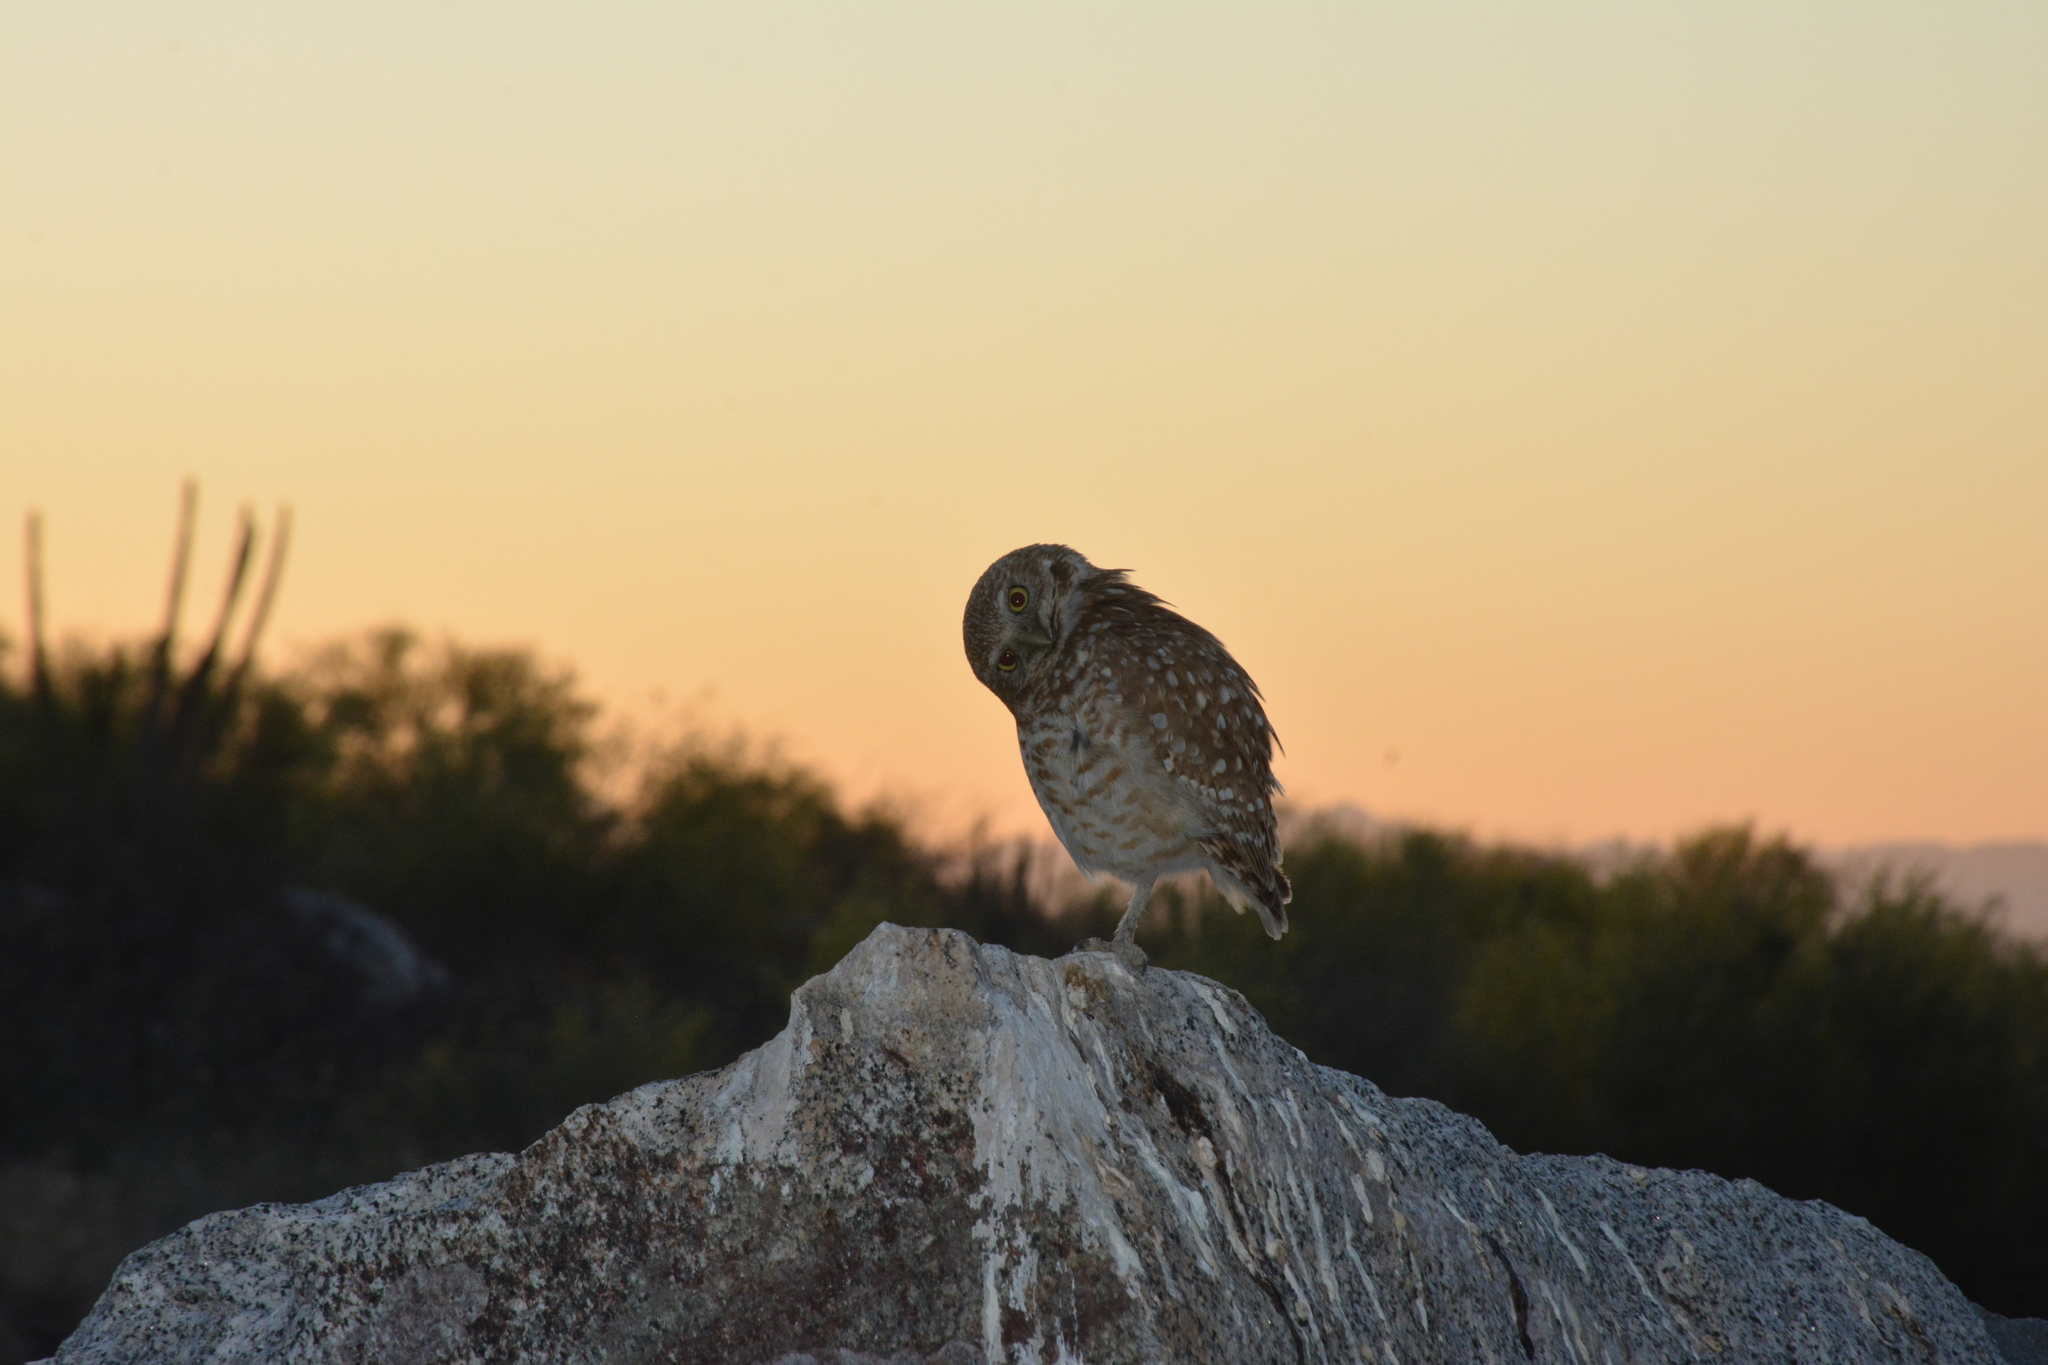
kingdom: Animalia
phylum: Chordata
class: Aves
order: Strigiformes
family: Strigidae
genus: Athene
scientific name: Athene cunicularia
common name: Burrowing owl
